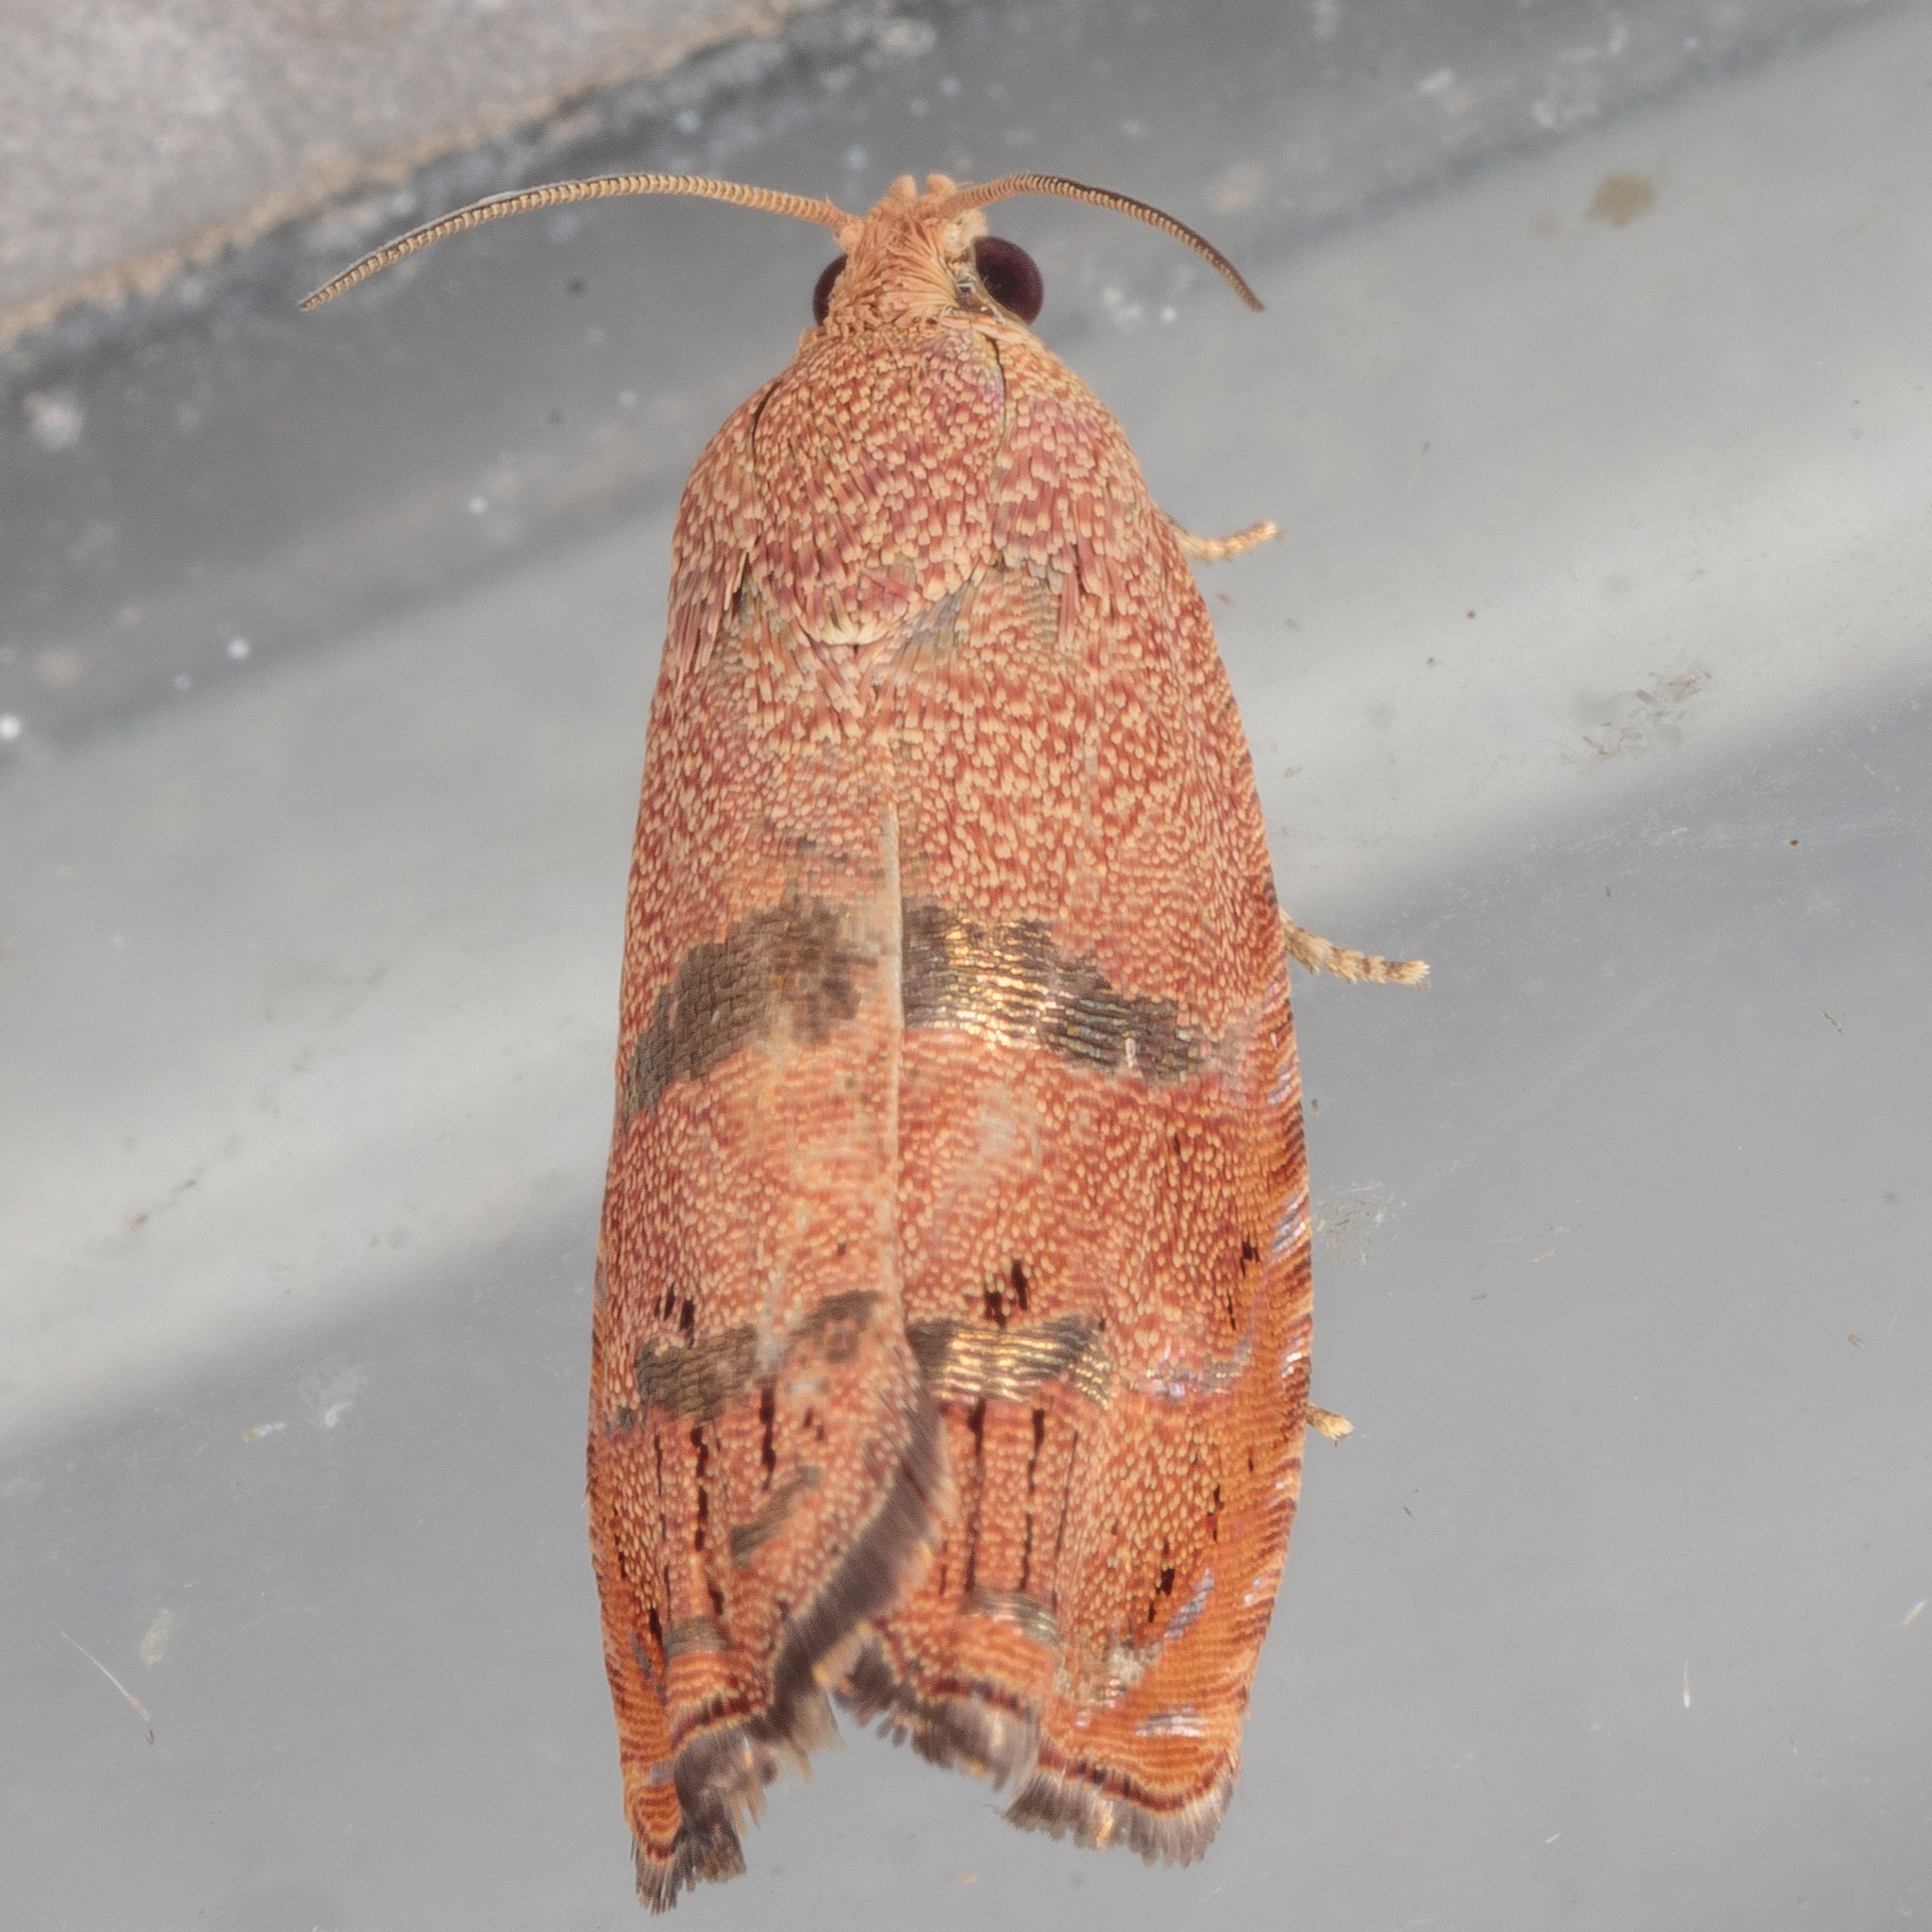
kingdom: Animalia
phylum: Arthropoda
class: Insecta
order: Lepidoptera
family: Tortricidae
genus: Cydia
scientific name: Cydia latiferreana
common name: Filbertworm moth
